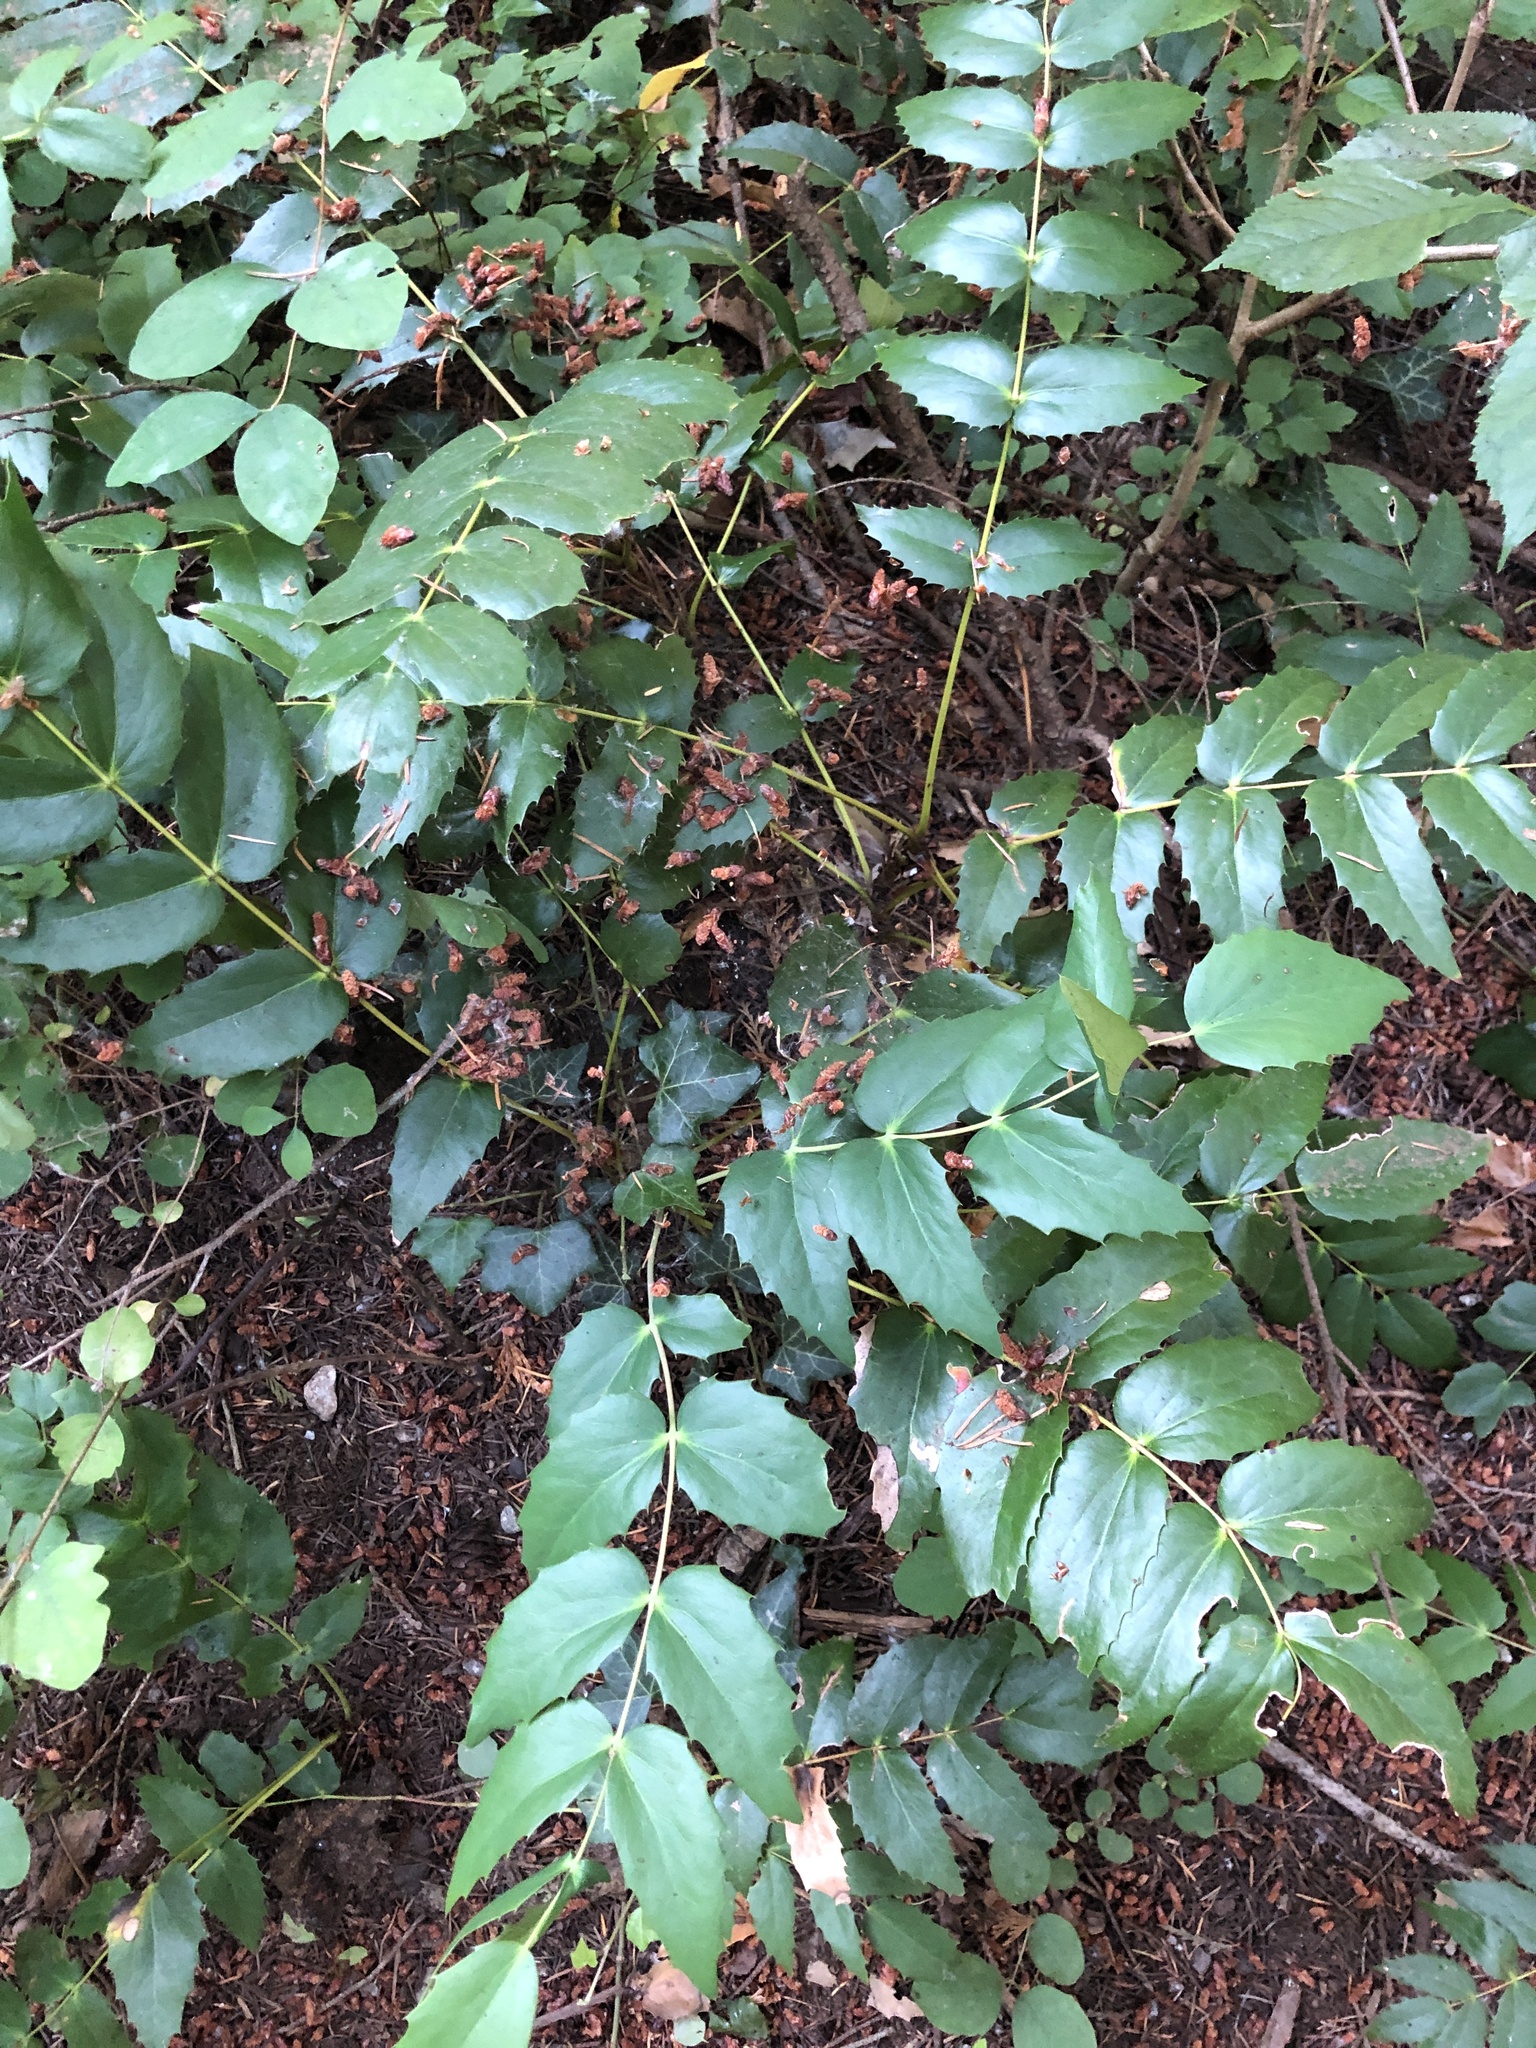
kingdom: Plantae
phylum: Tracheophyta
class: Magnoliopsida
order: Ranunculales
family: Berberidaceae
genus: Mahonia
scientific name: Mahonia nervosa
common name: Cascade oregon-grape
